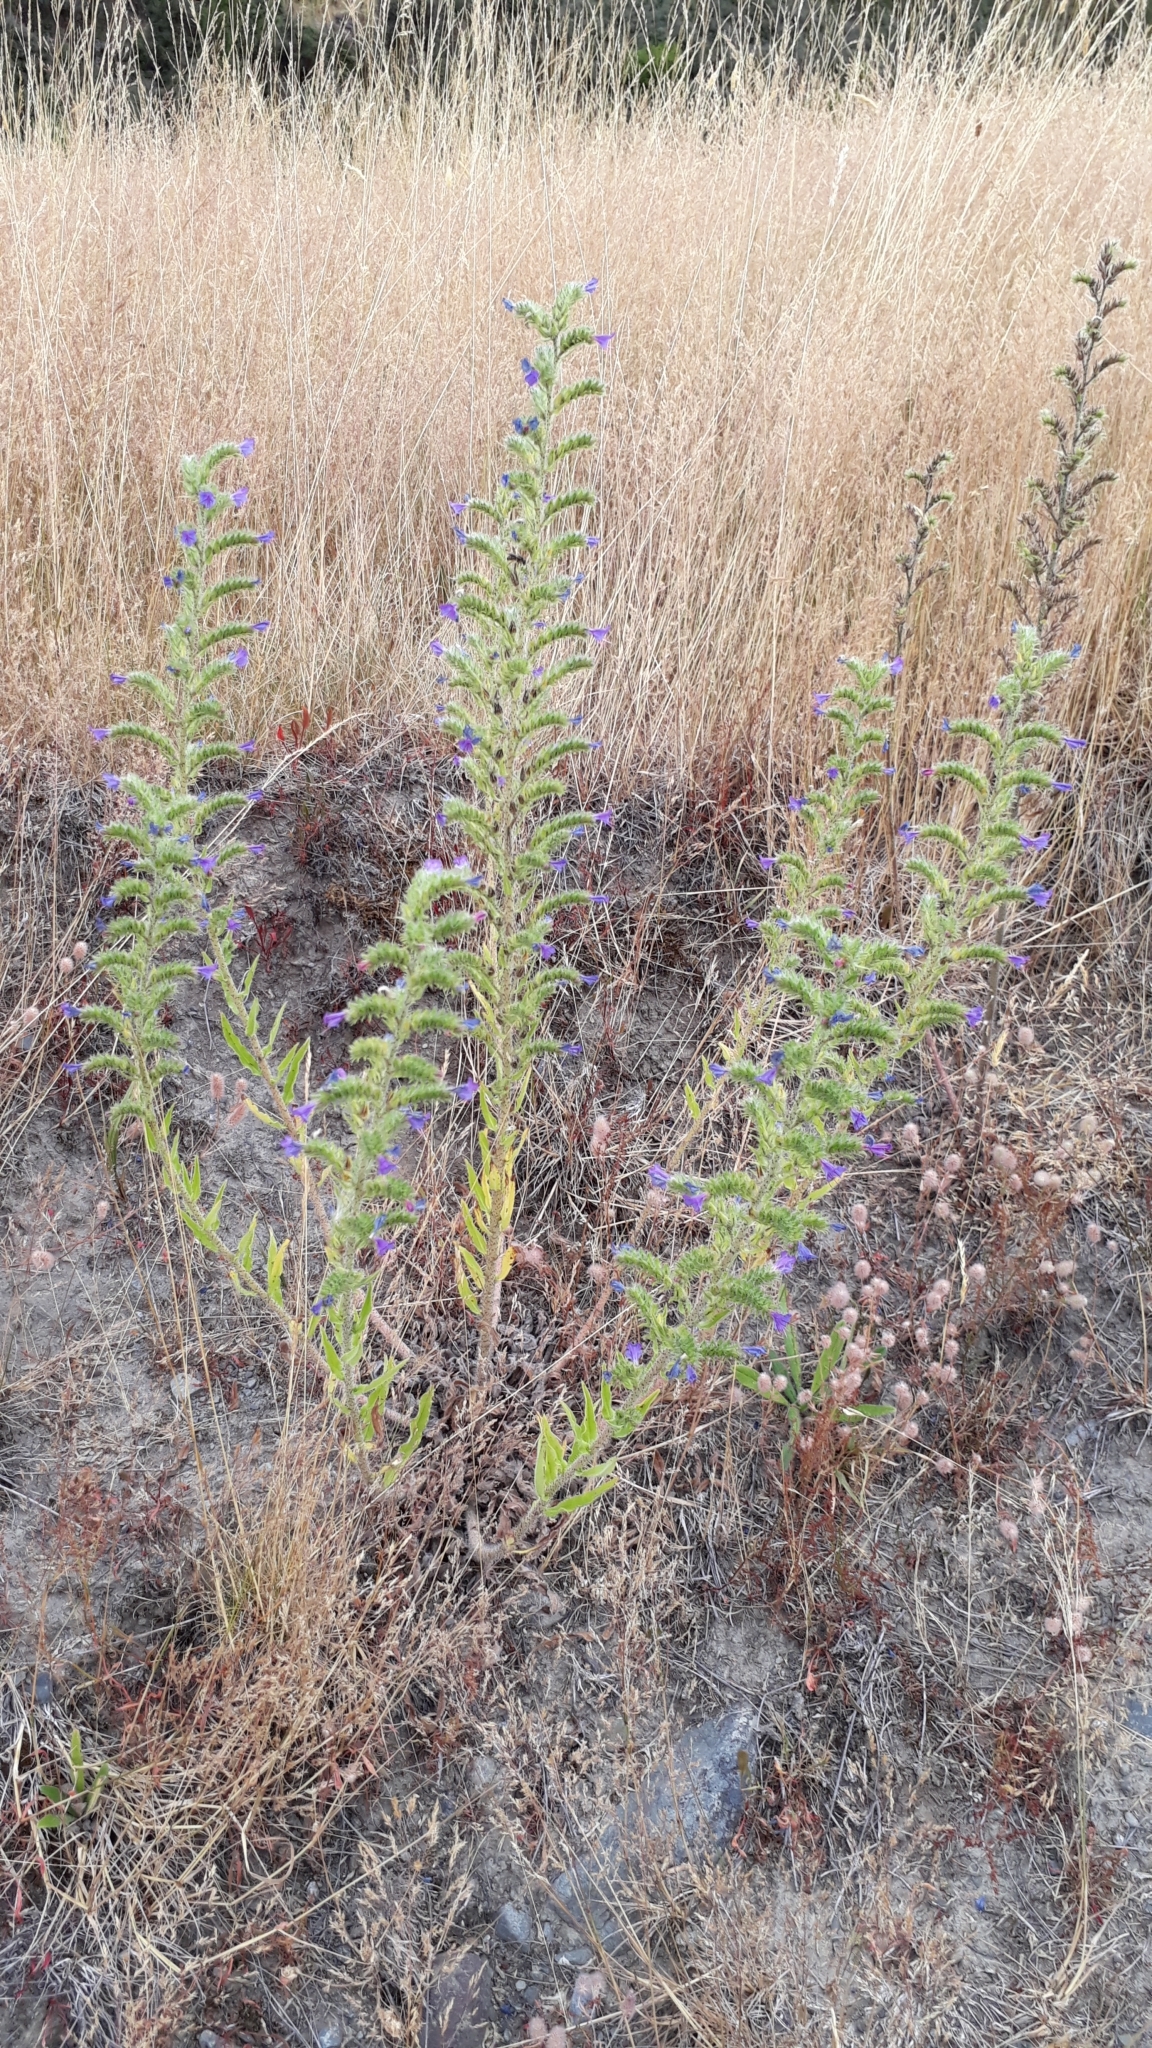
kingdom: Plantae
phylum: Tracheophyta
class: Magnoliopsida
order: Boraginales
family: Boraginaceae
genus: Echium
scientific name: Echium vulgare
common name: Common viper's bugloss
